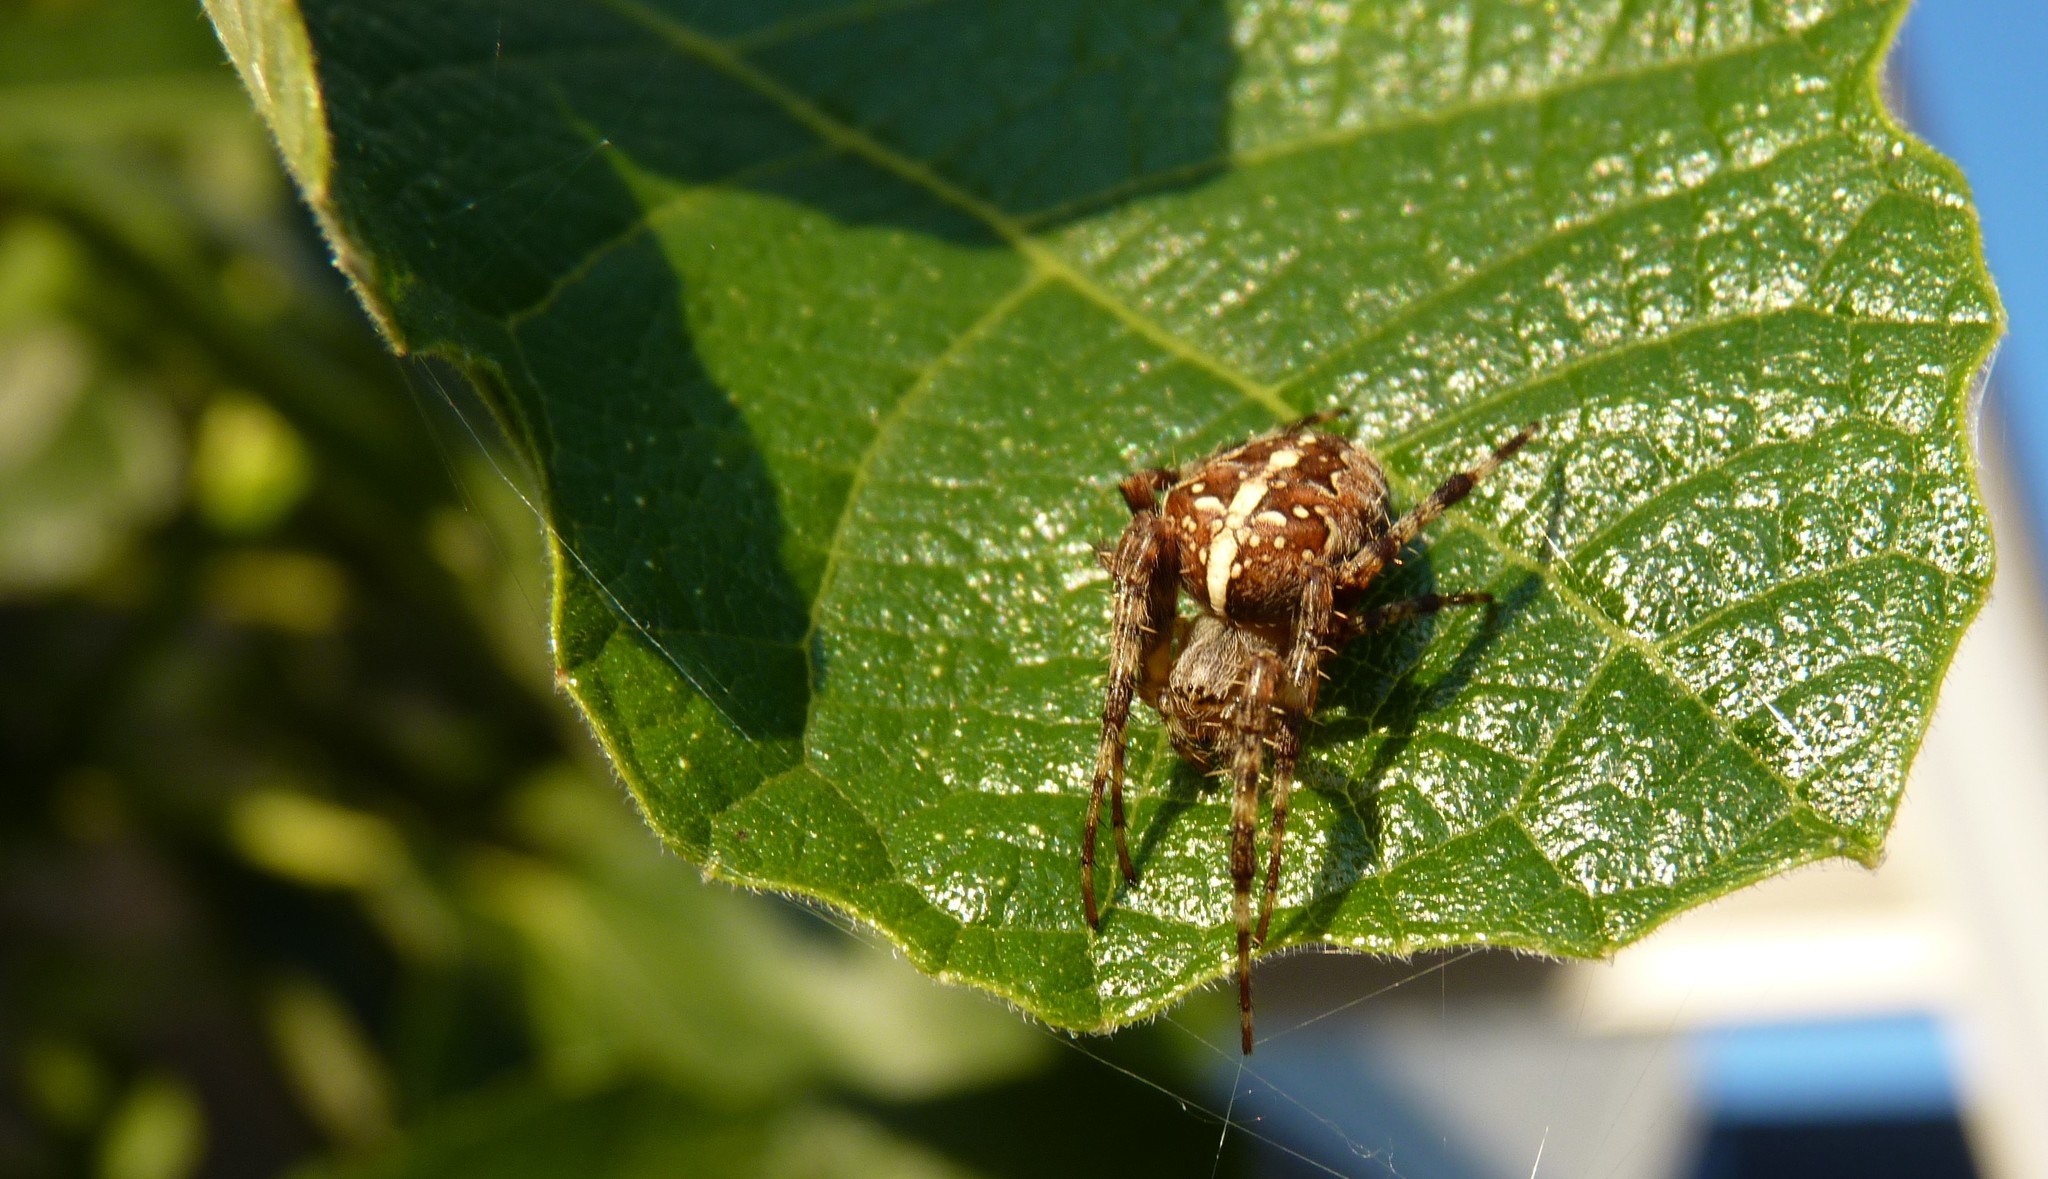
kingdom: Animalia
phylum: Arthropoda
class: Arachnida
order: Araneae
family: Araneidae
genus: Araneus
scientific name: Araneus diadematus
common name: Cross orbweaver
